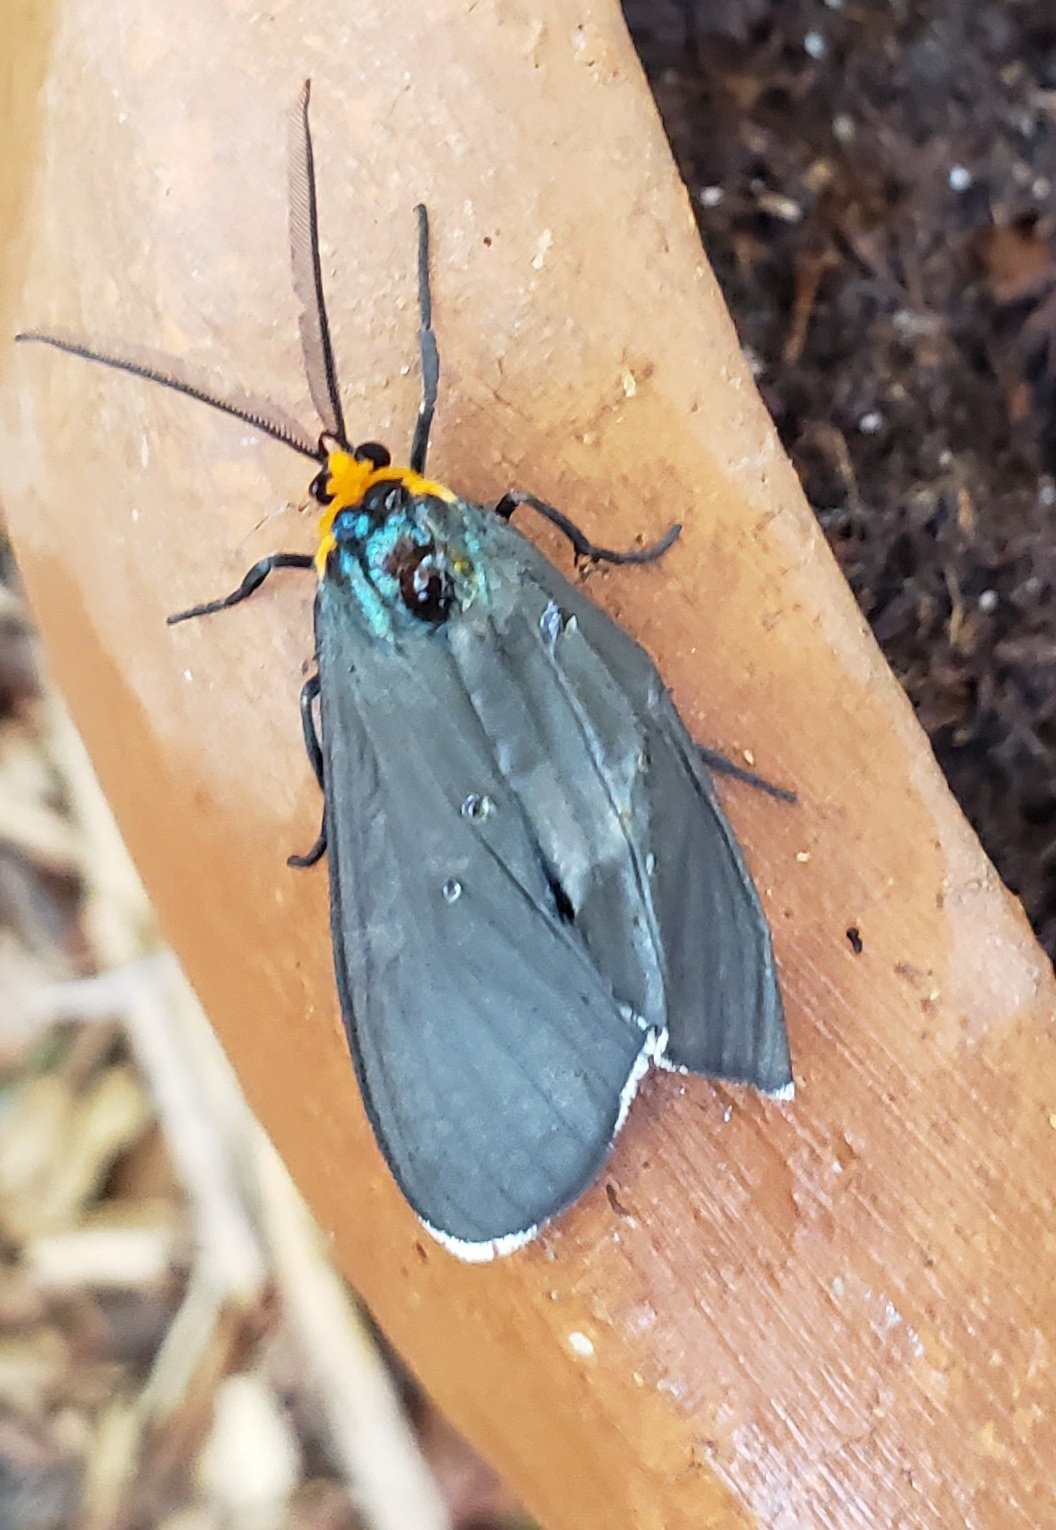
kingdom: Animalia
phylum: Arthropoda
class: Insecta
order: Lepidoptera
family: Erebidae
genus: Ctenucha
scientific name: Ctenucha virginica
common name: Virginia ctenucha moth
